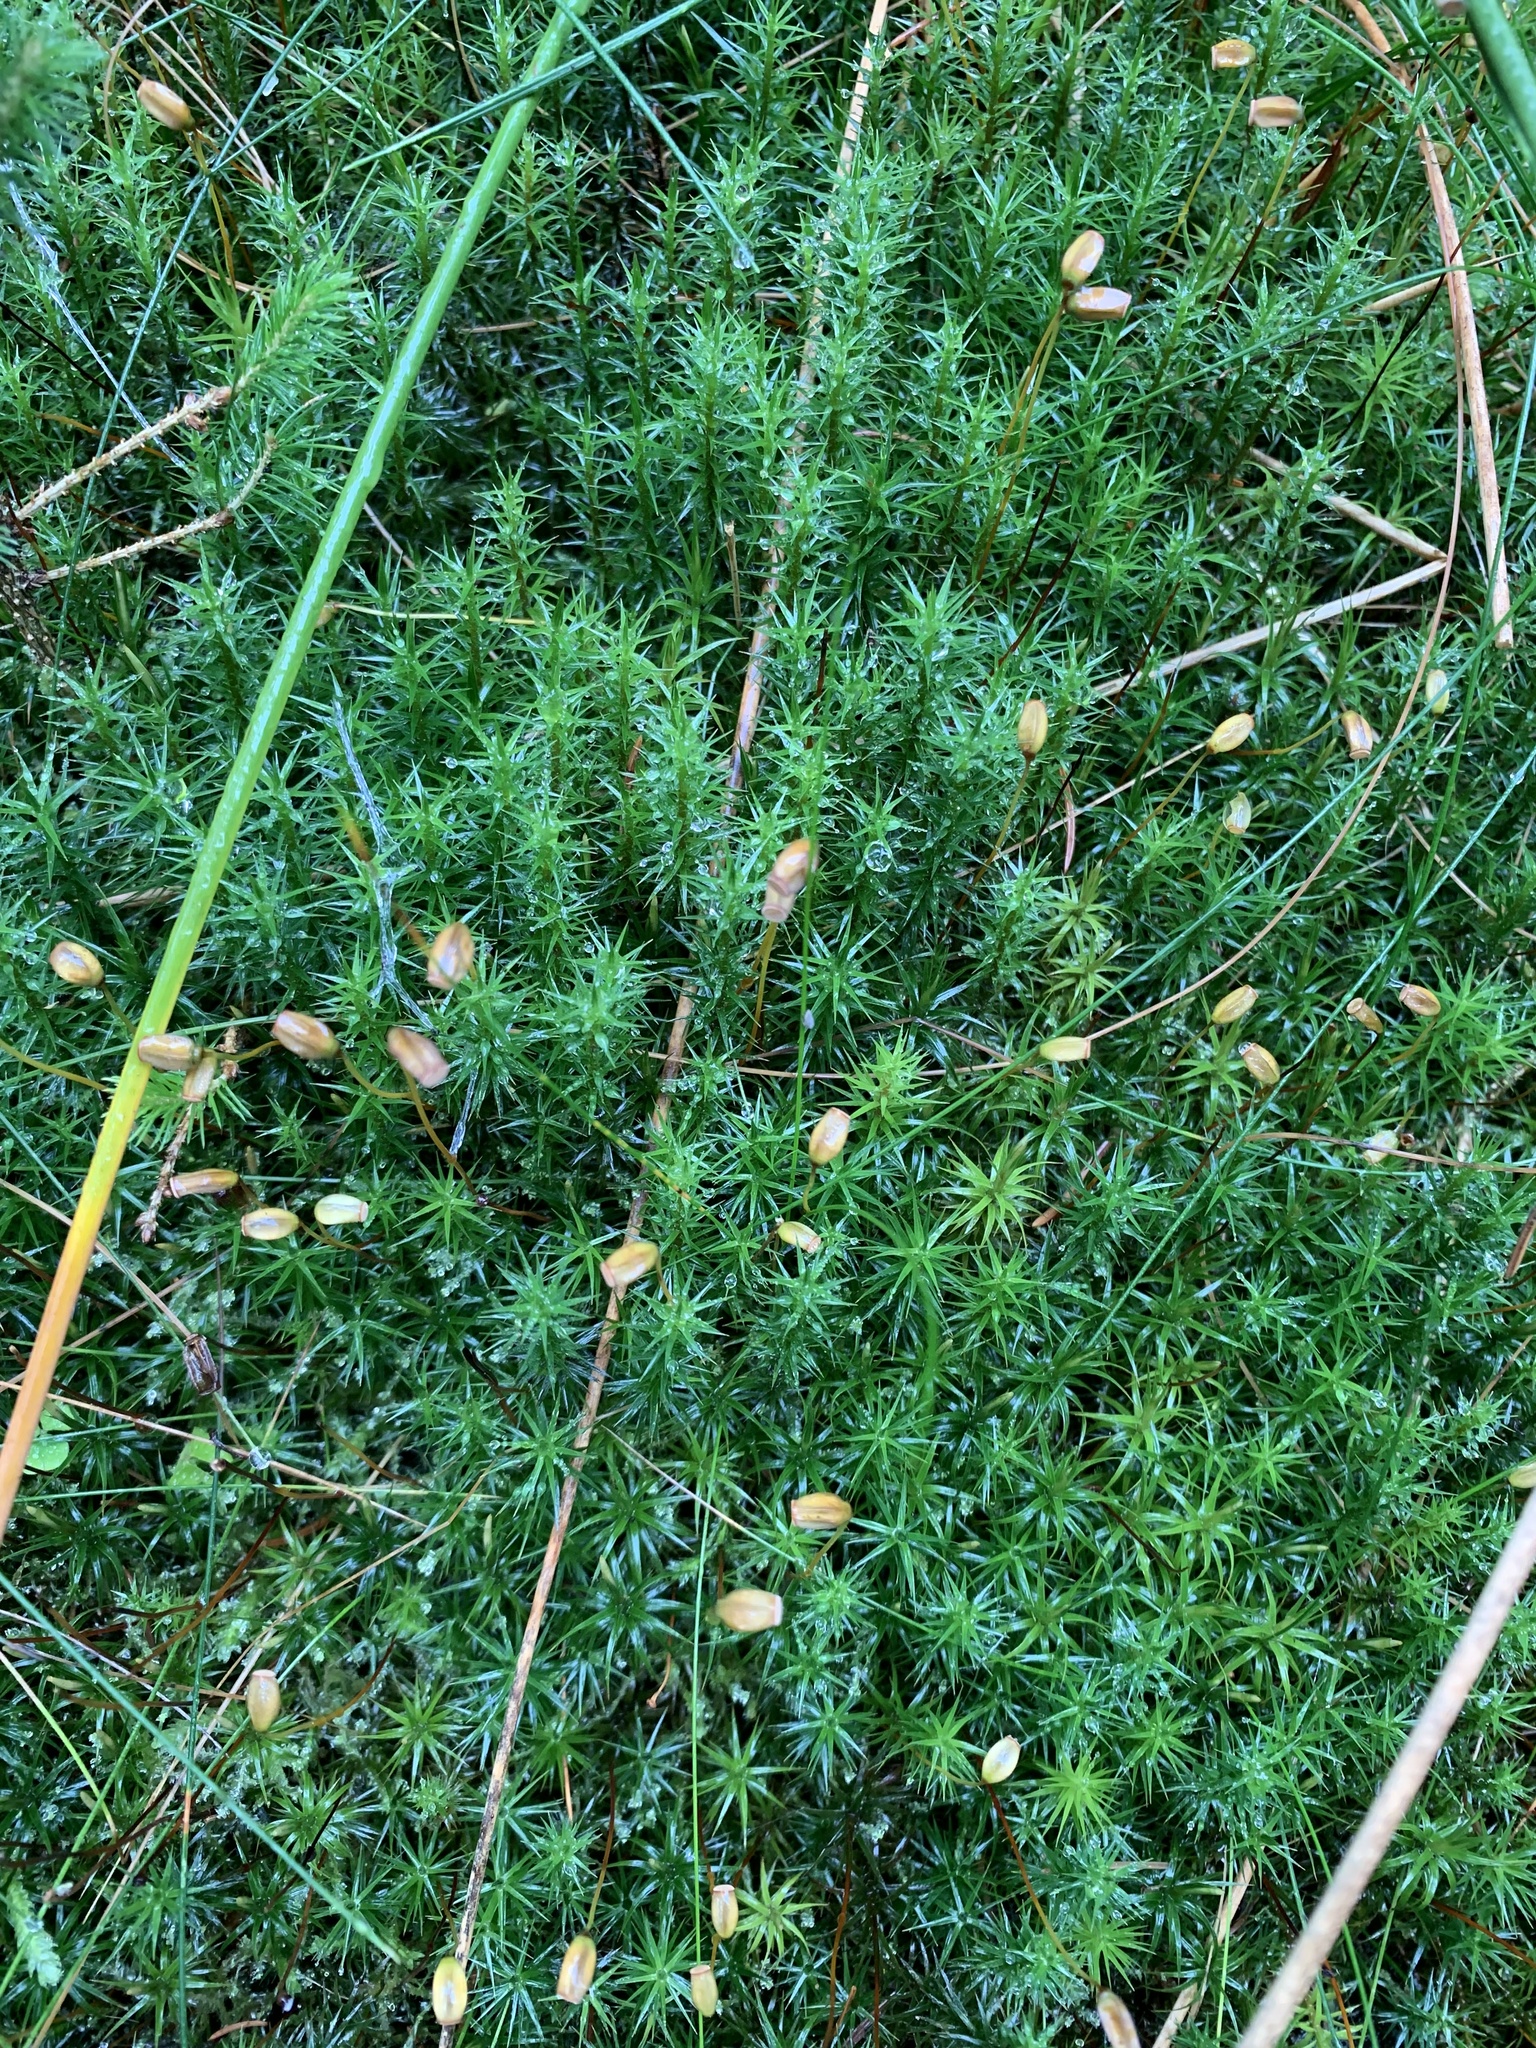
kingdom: Plantae
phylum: Bryophyta
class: Polytrichopsida
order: Polytrichales
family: Polytrichaceae
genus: Polytrichum
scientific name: Polytrichum formosum
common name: Bank haircap moss
